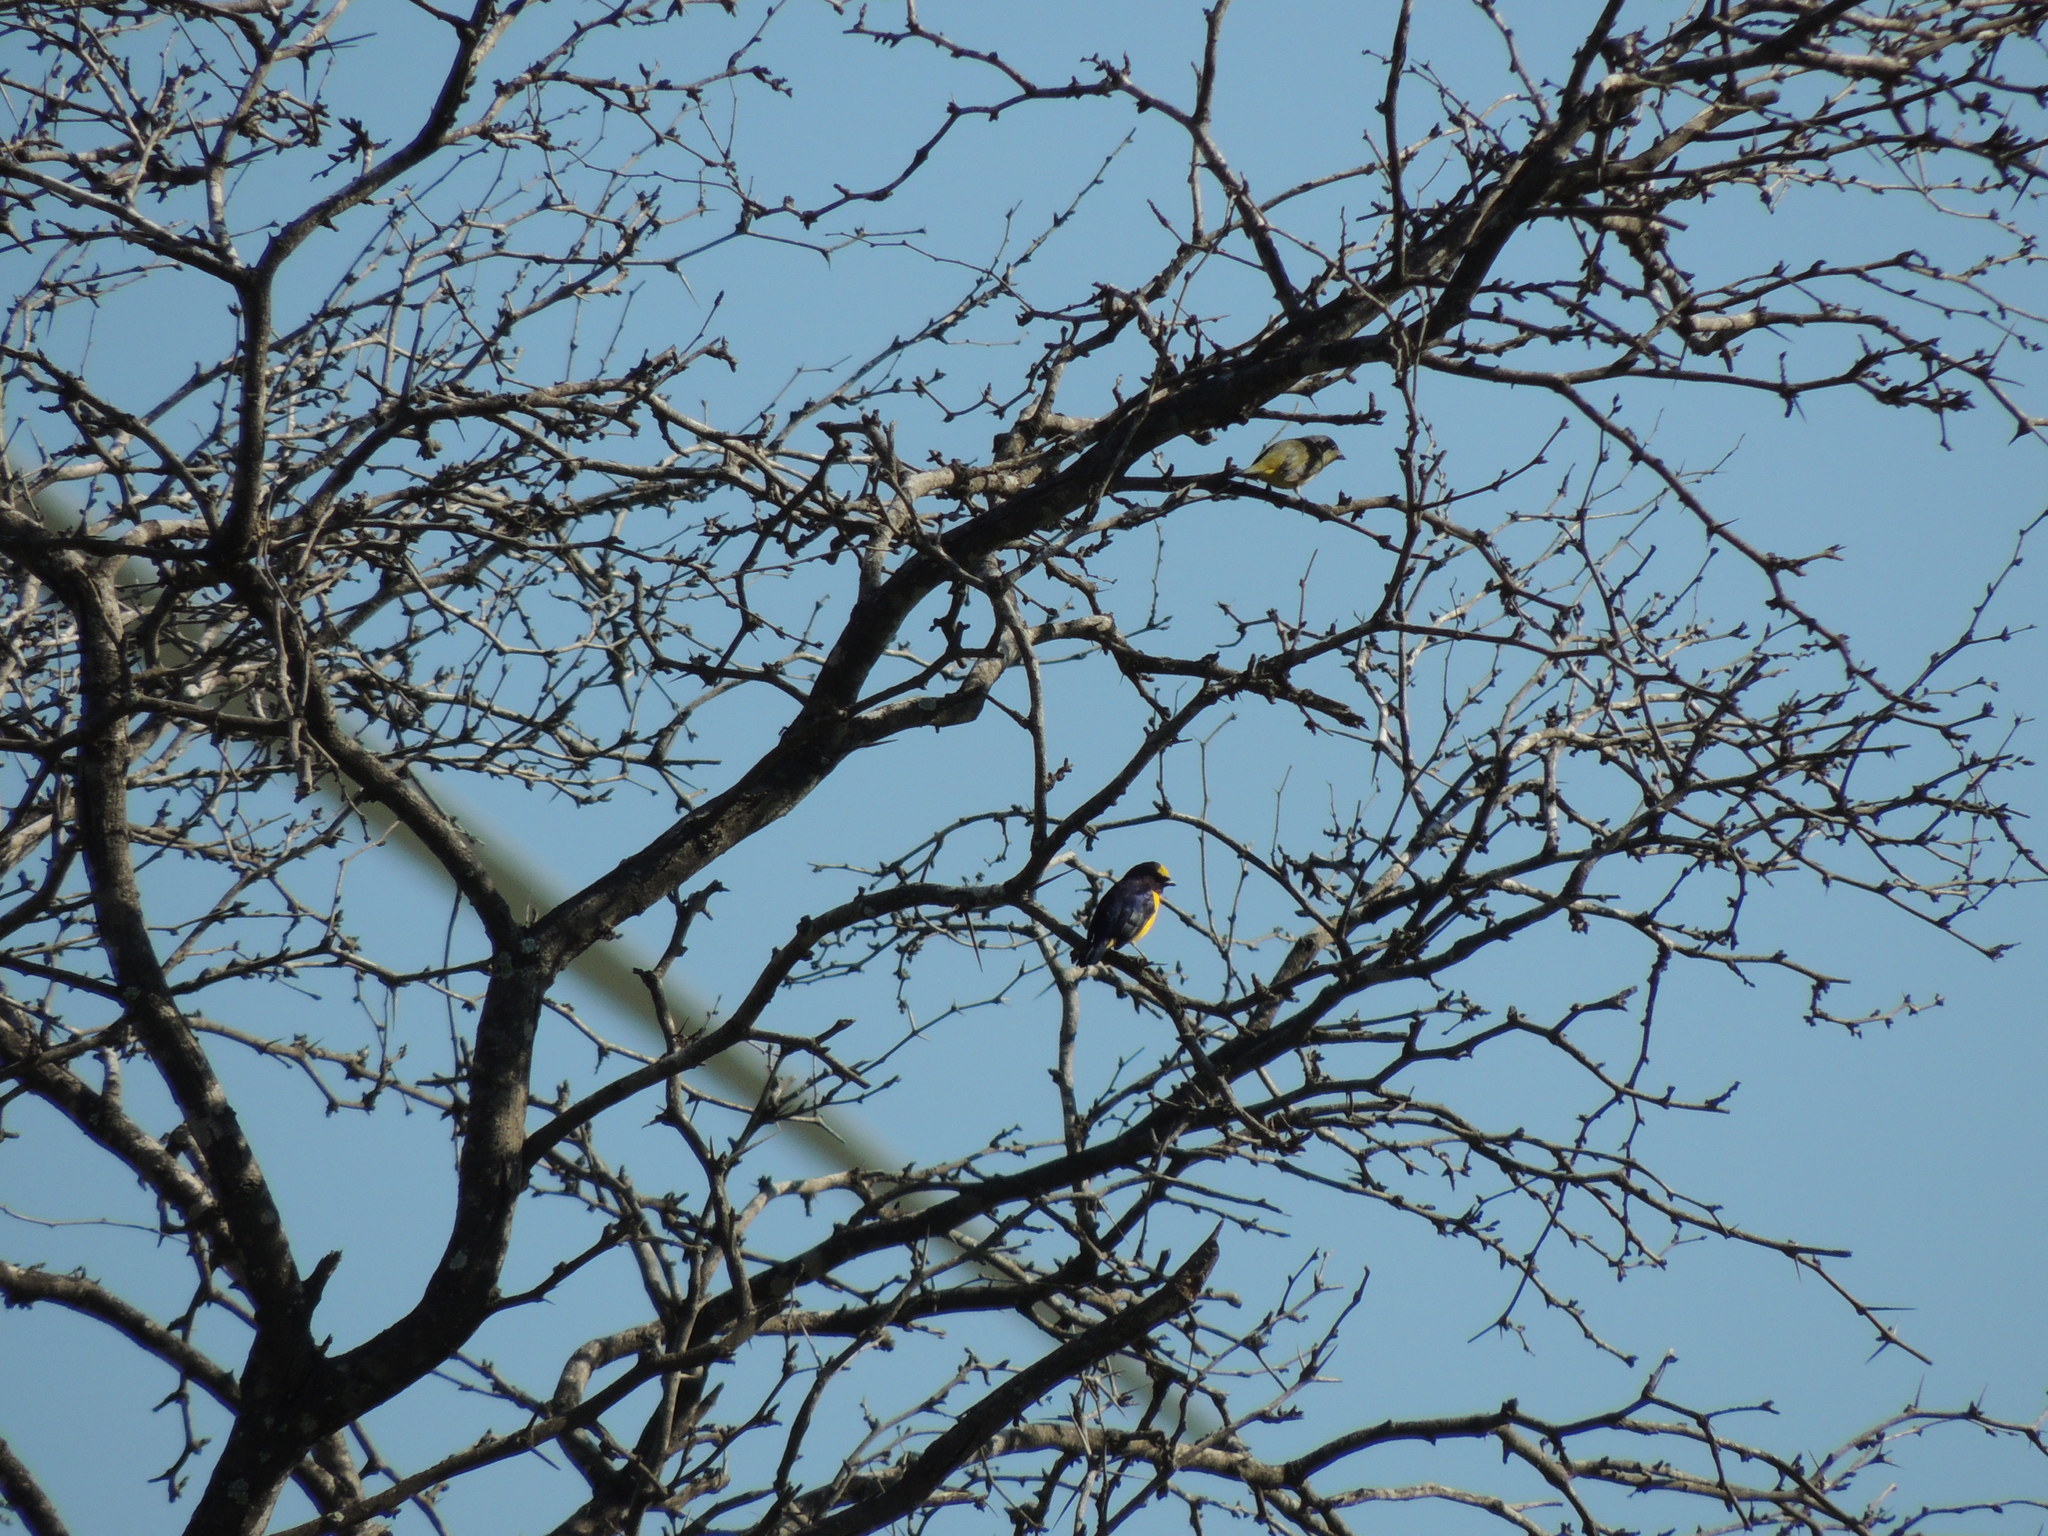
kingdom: Animalia
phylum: Chordata
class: Aves
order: Passeriformes
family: Fringillidae
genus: Euphonia
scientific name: Euphonia affinis
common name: Scrub euphonia
